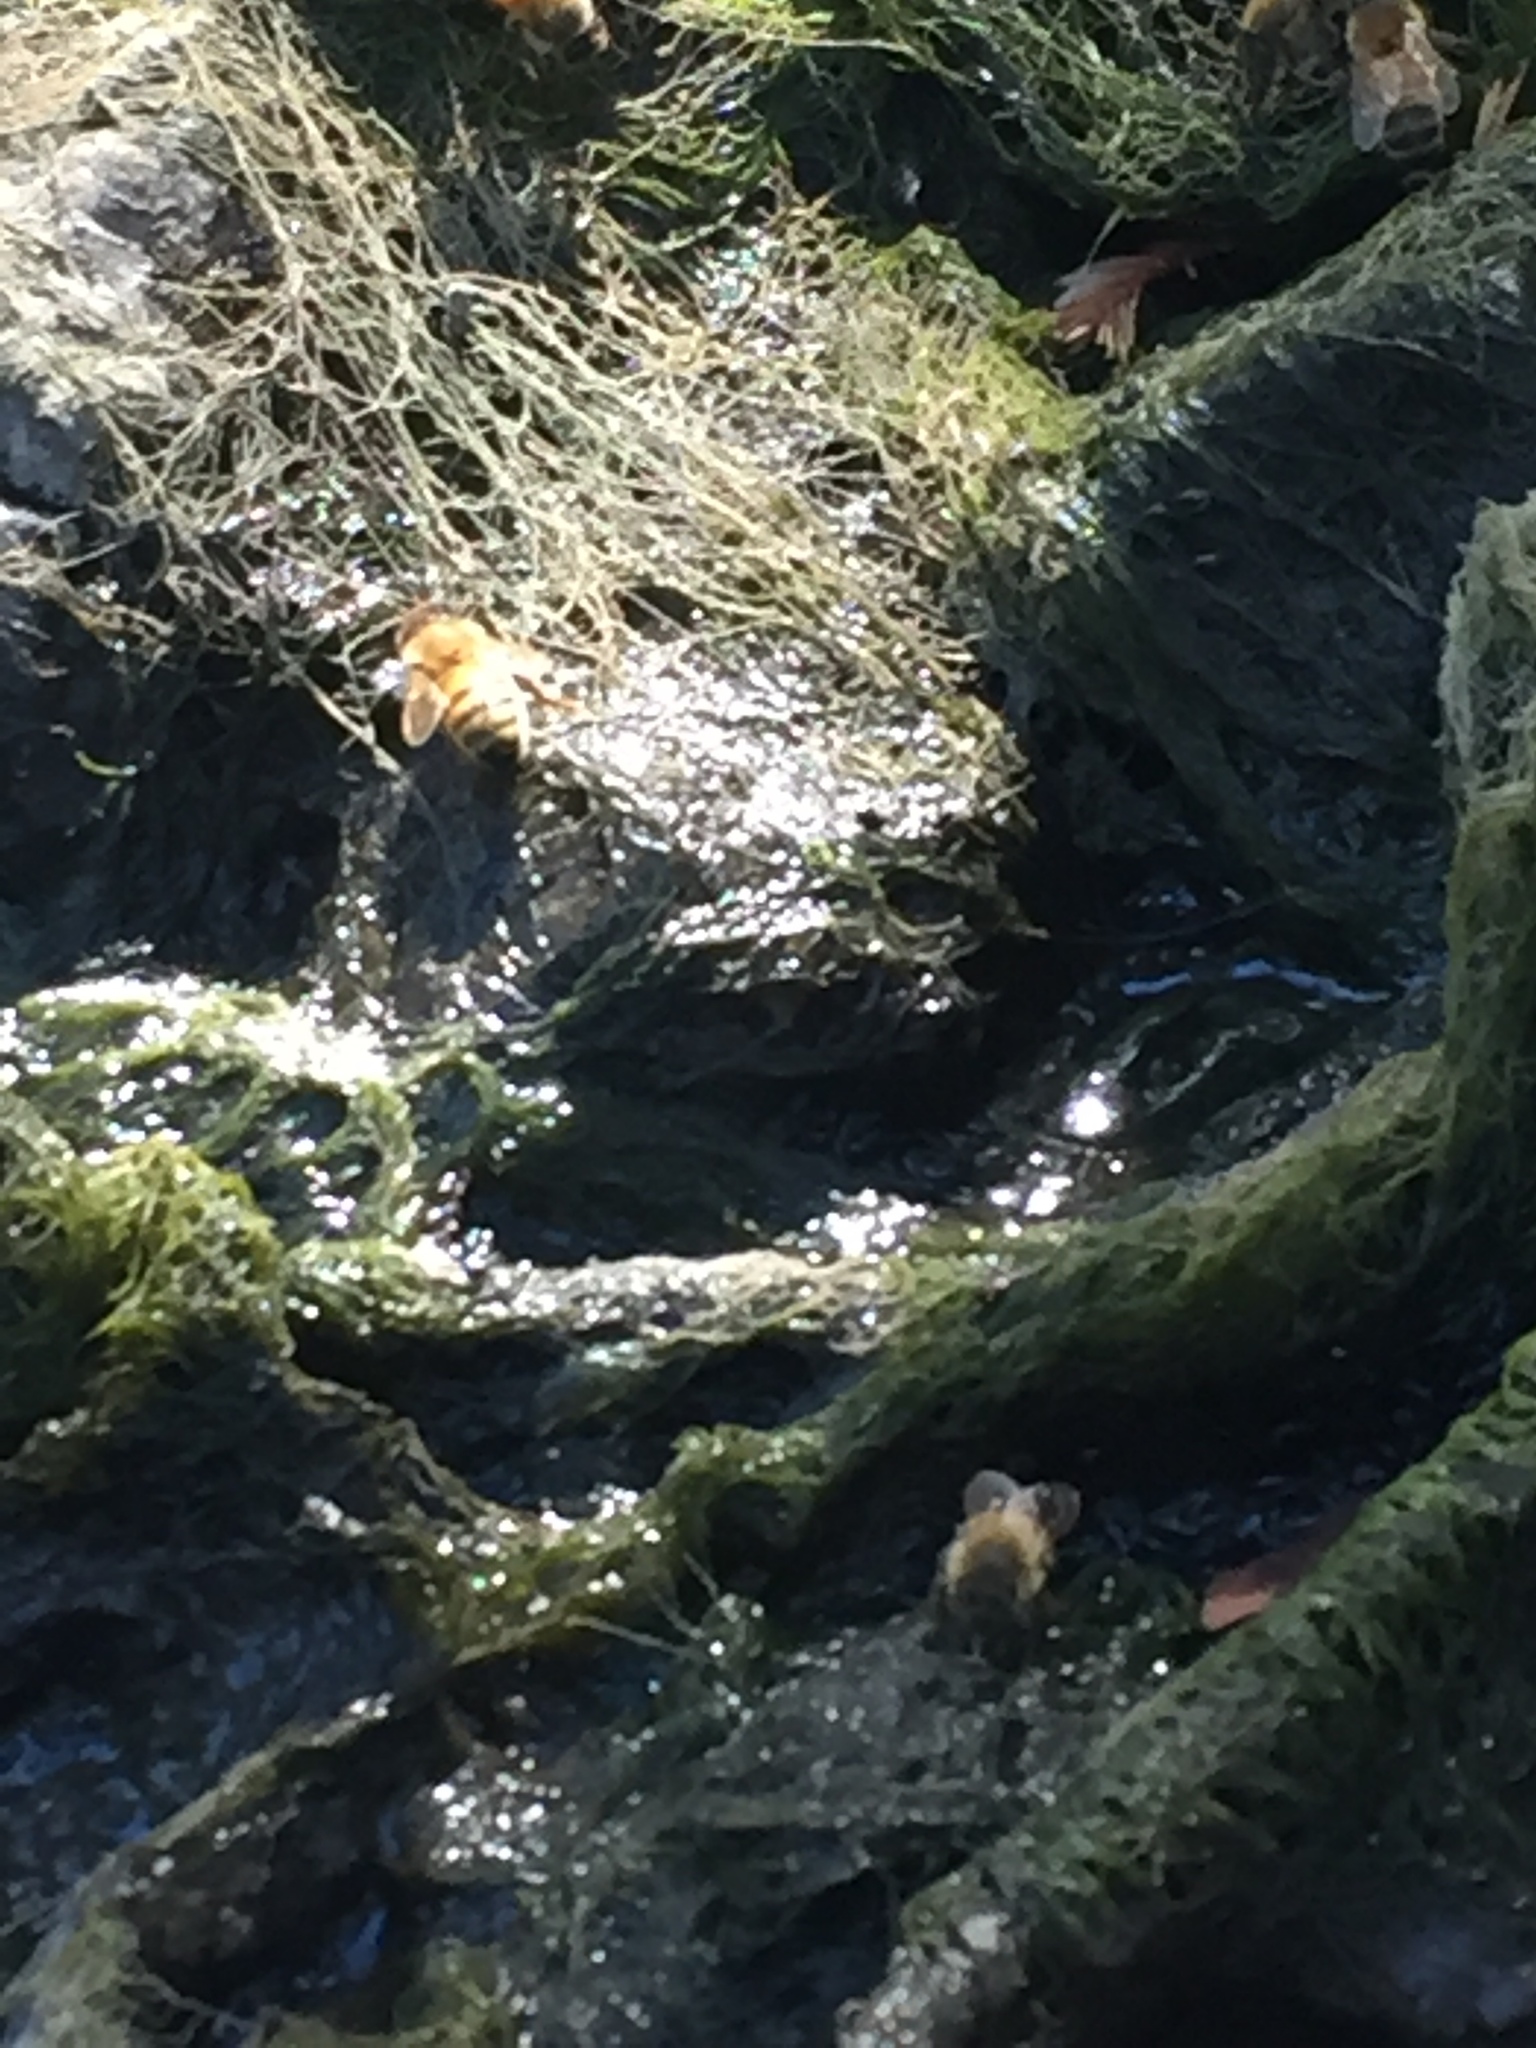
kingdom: Animalia
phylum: Arthropoda
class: Insecta
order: Hymenoptera
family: Apidae
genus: Apis
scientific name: Apis mellifera
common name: Honey bee
